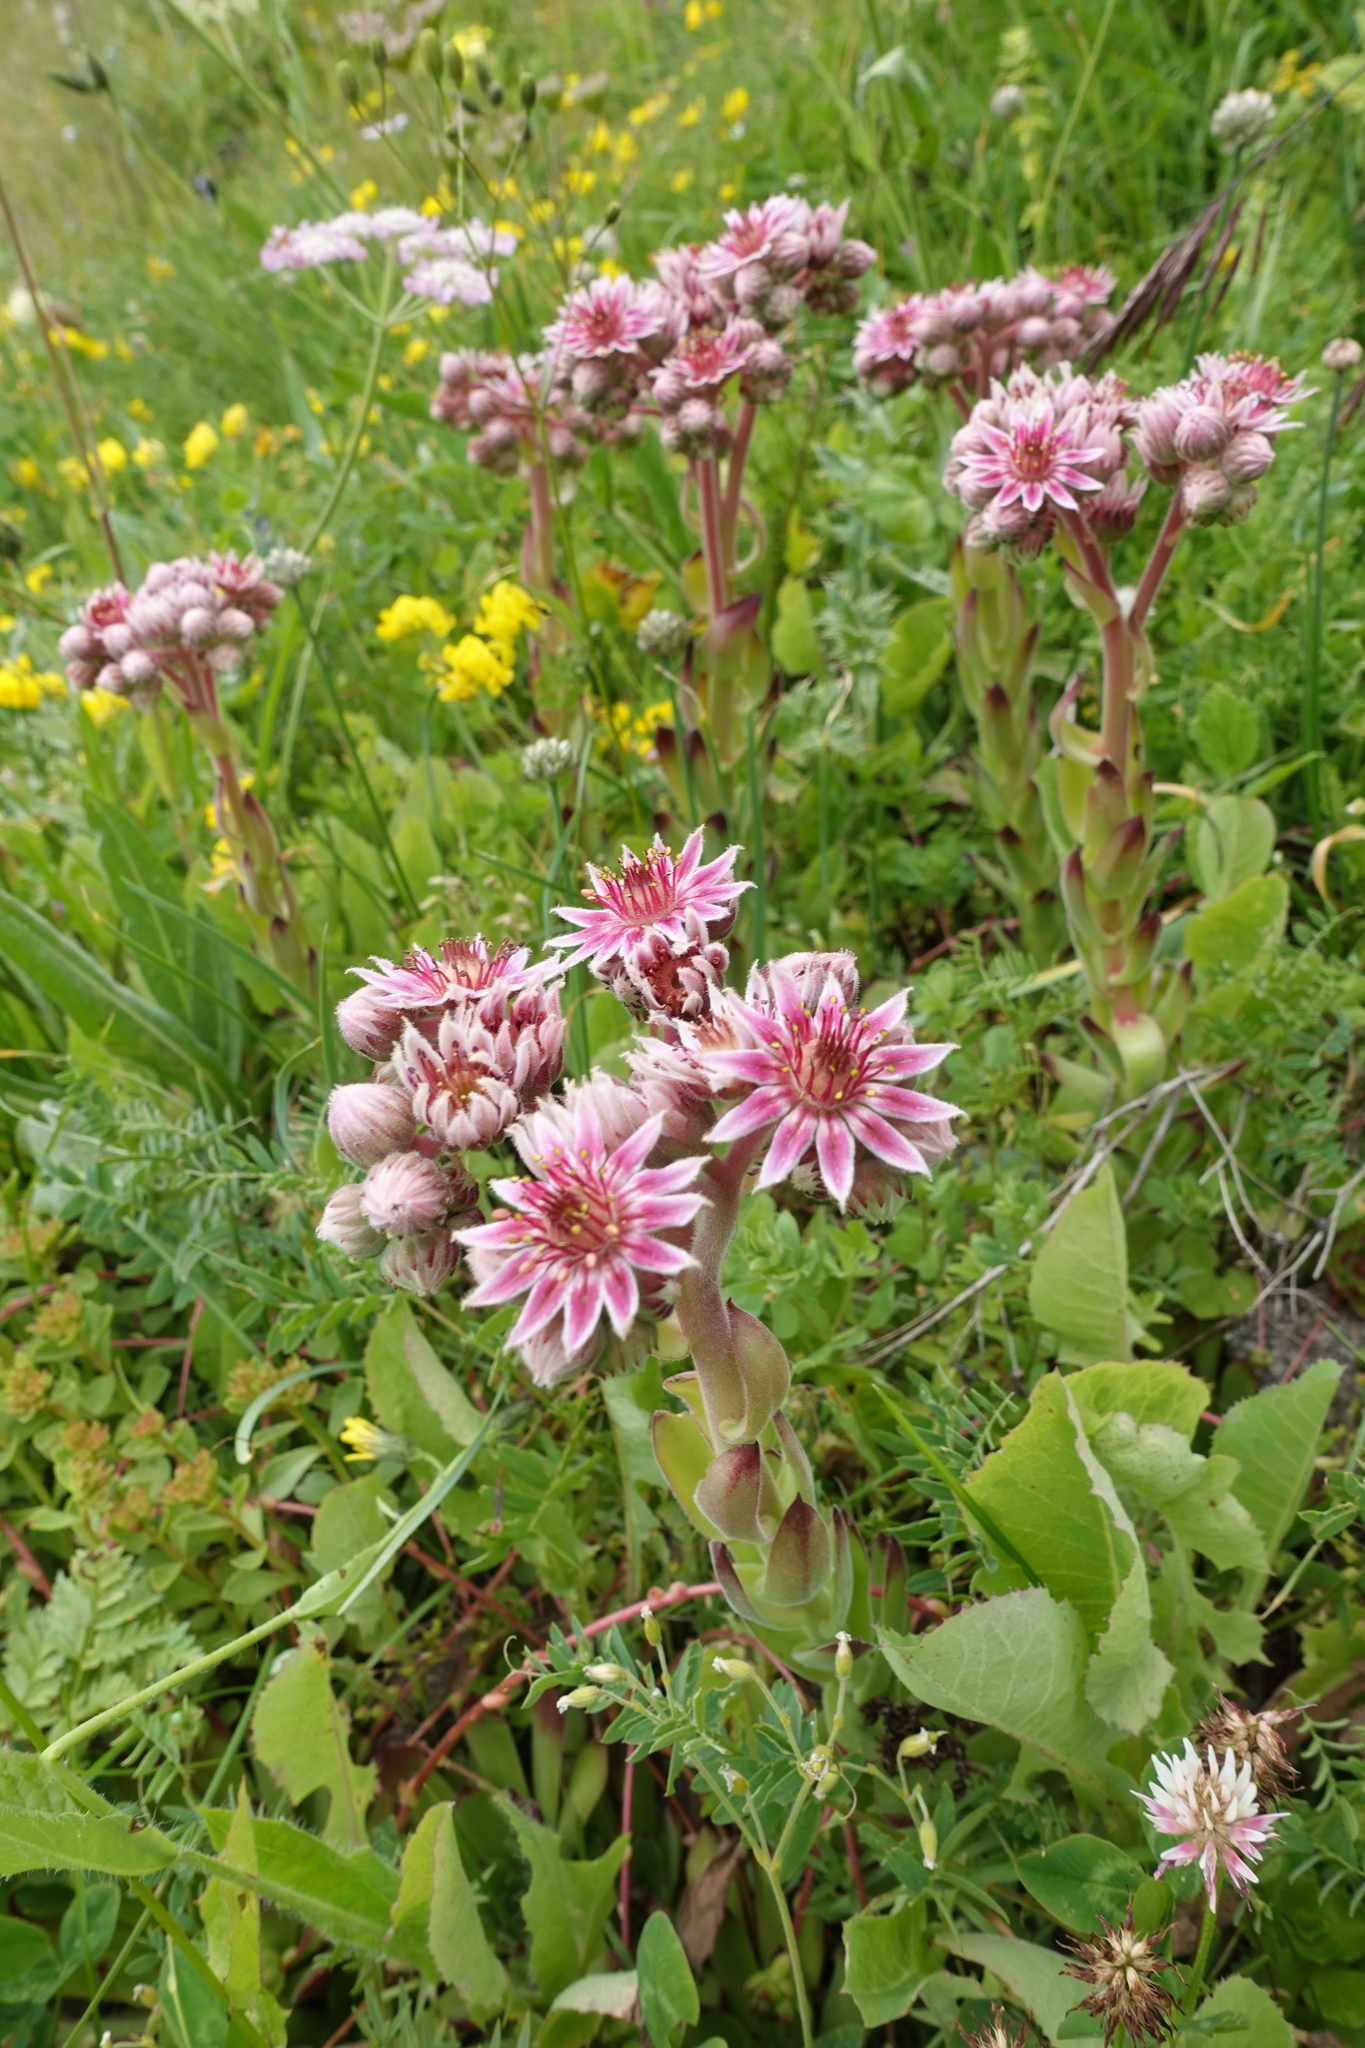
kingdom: Plantae
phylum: Tracheophyta
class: Magnoliopsida
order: Saxifragales
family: Crassulaceae
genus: Sempervivum
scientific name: Sempervivum caucasicum
